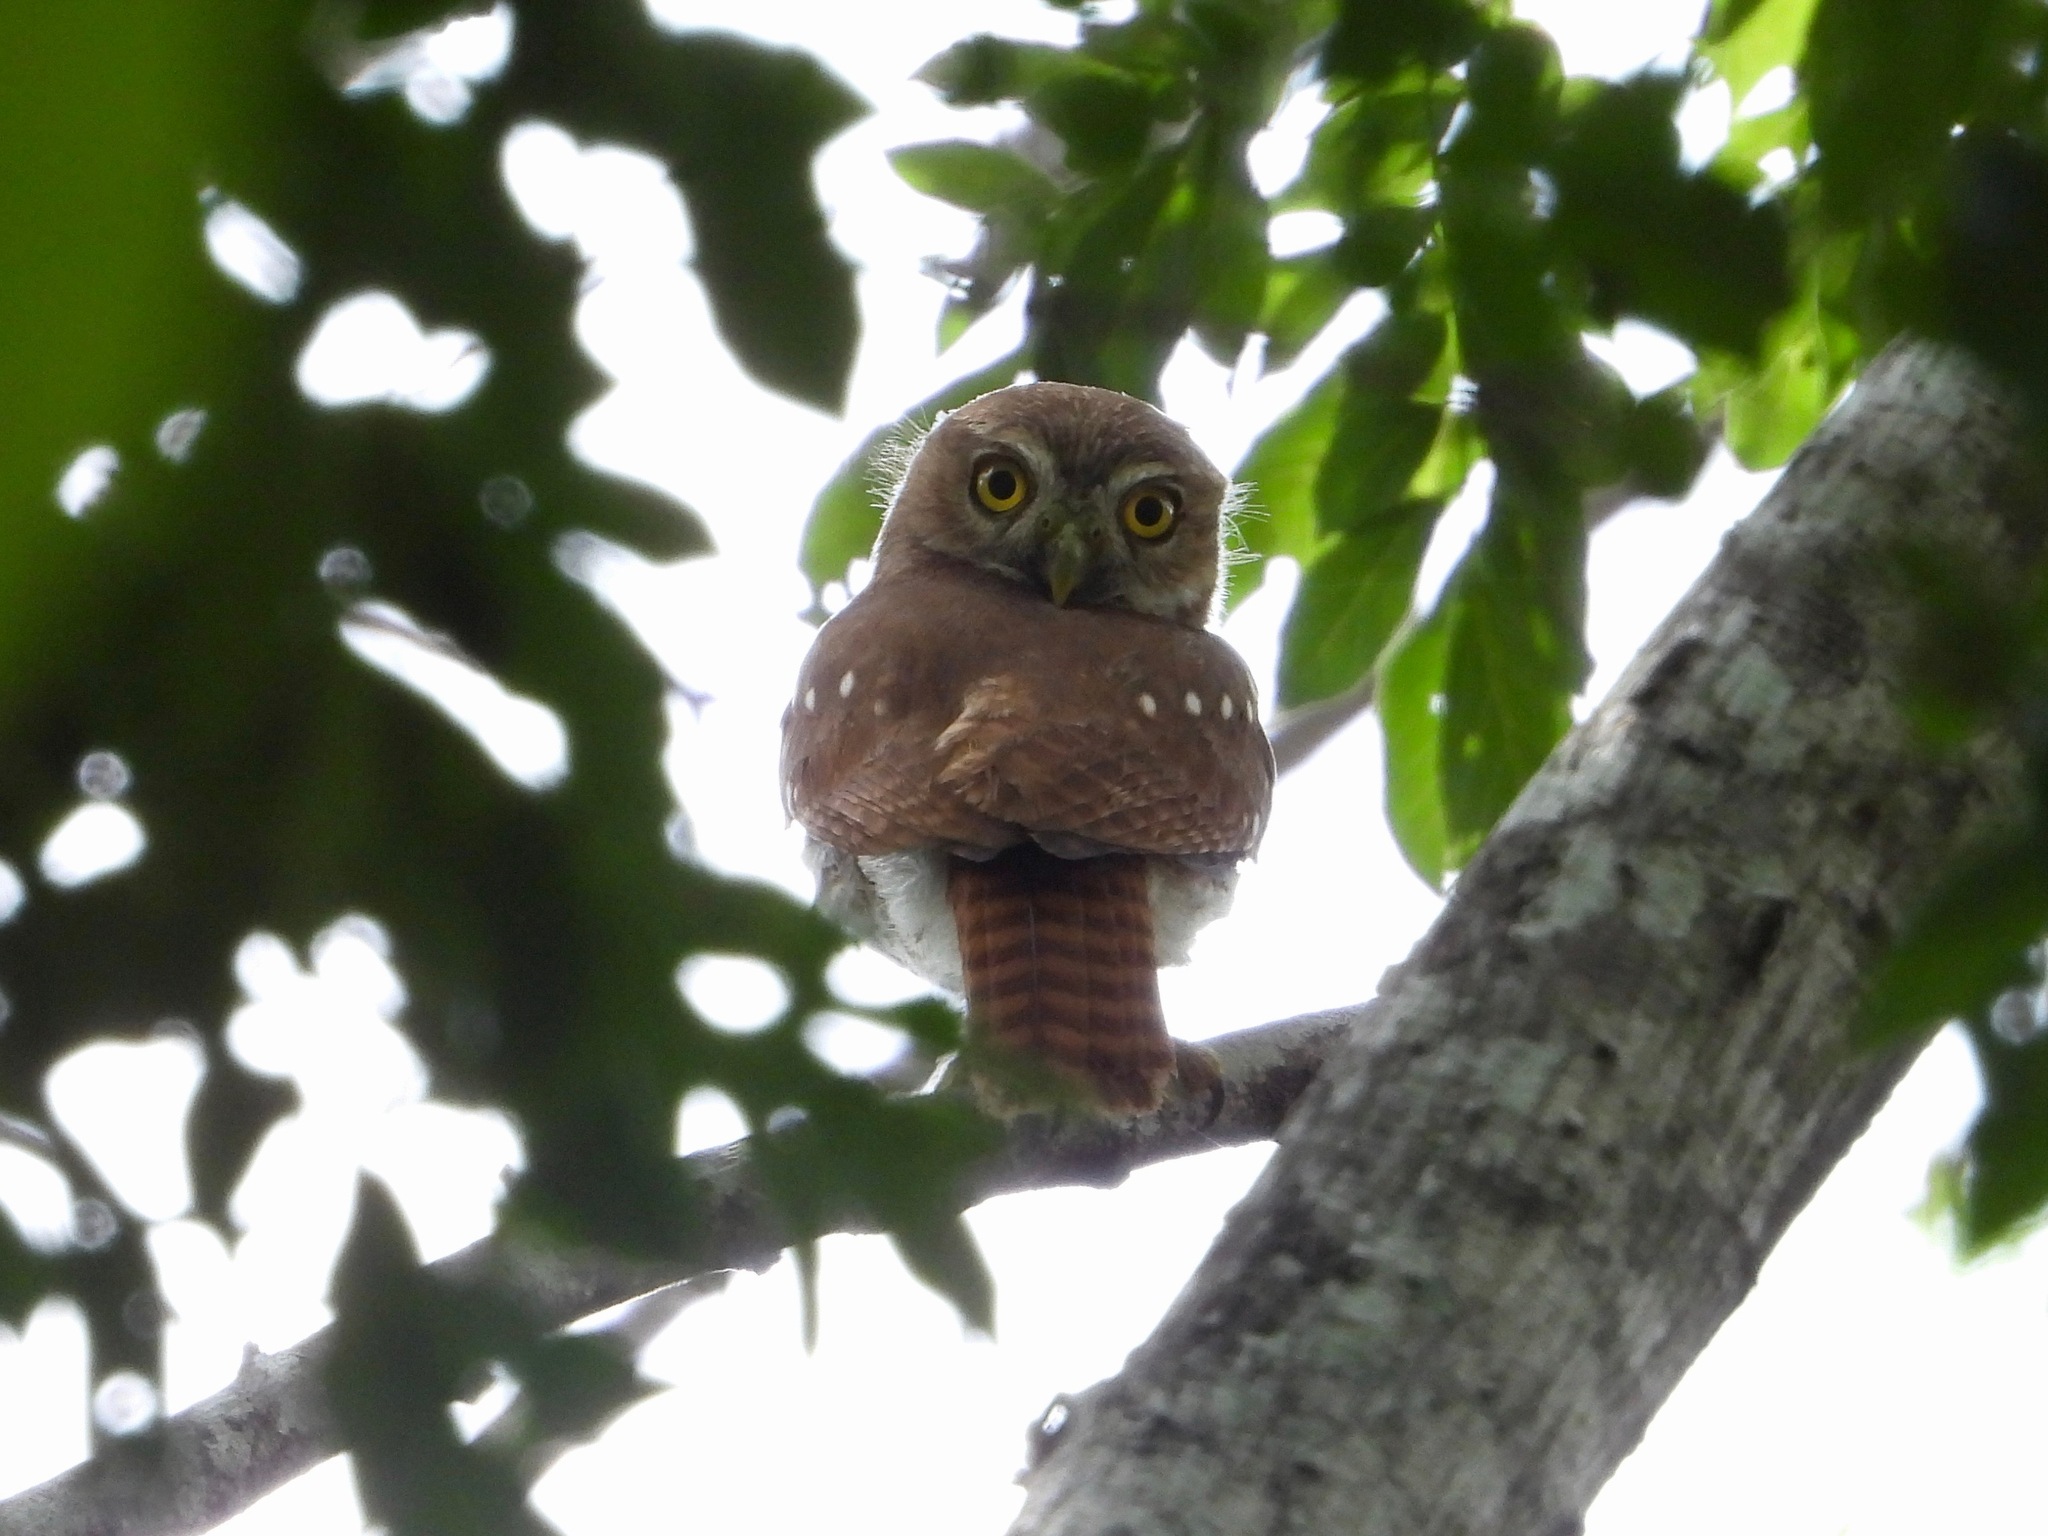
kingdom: Animalia
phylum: Chordata
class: Aves
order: Strigiformes
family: Strigidae
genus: Glaucidium
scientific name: Glaucidium brasilianum
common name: Ferruginous pygmy-owl
